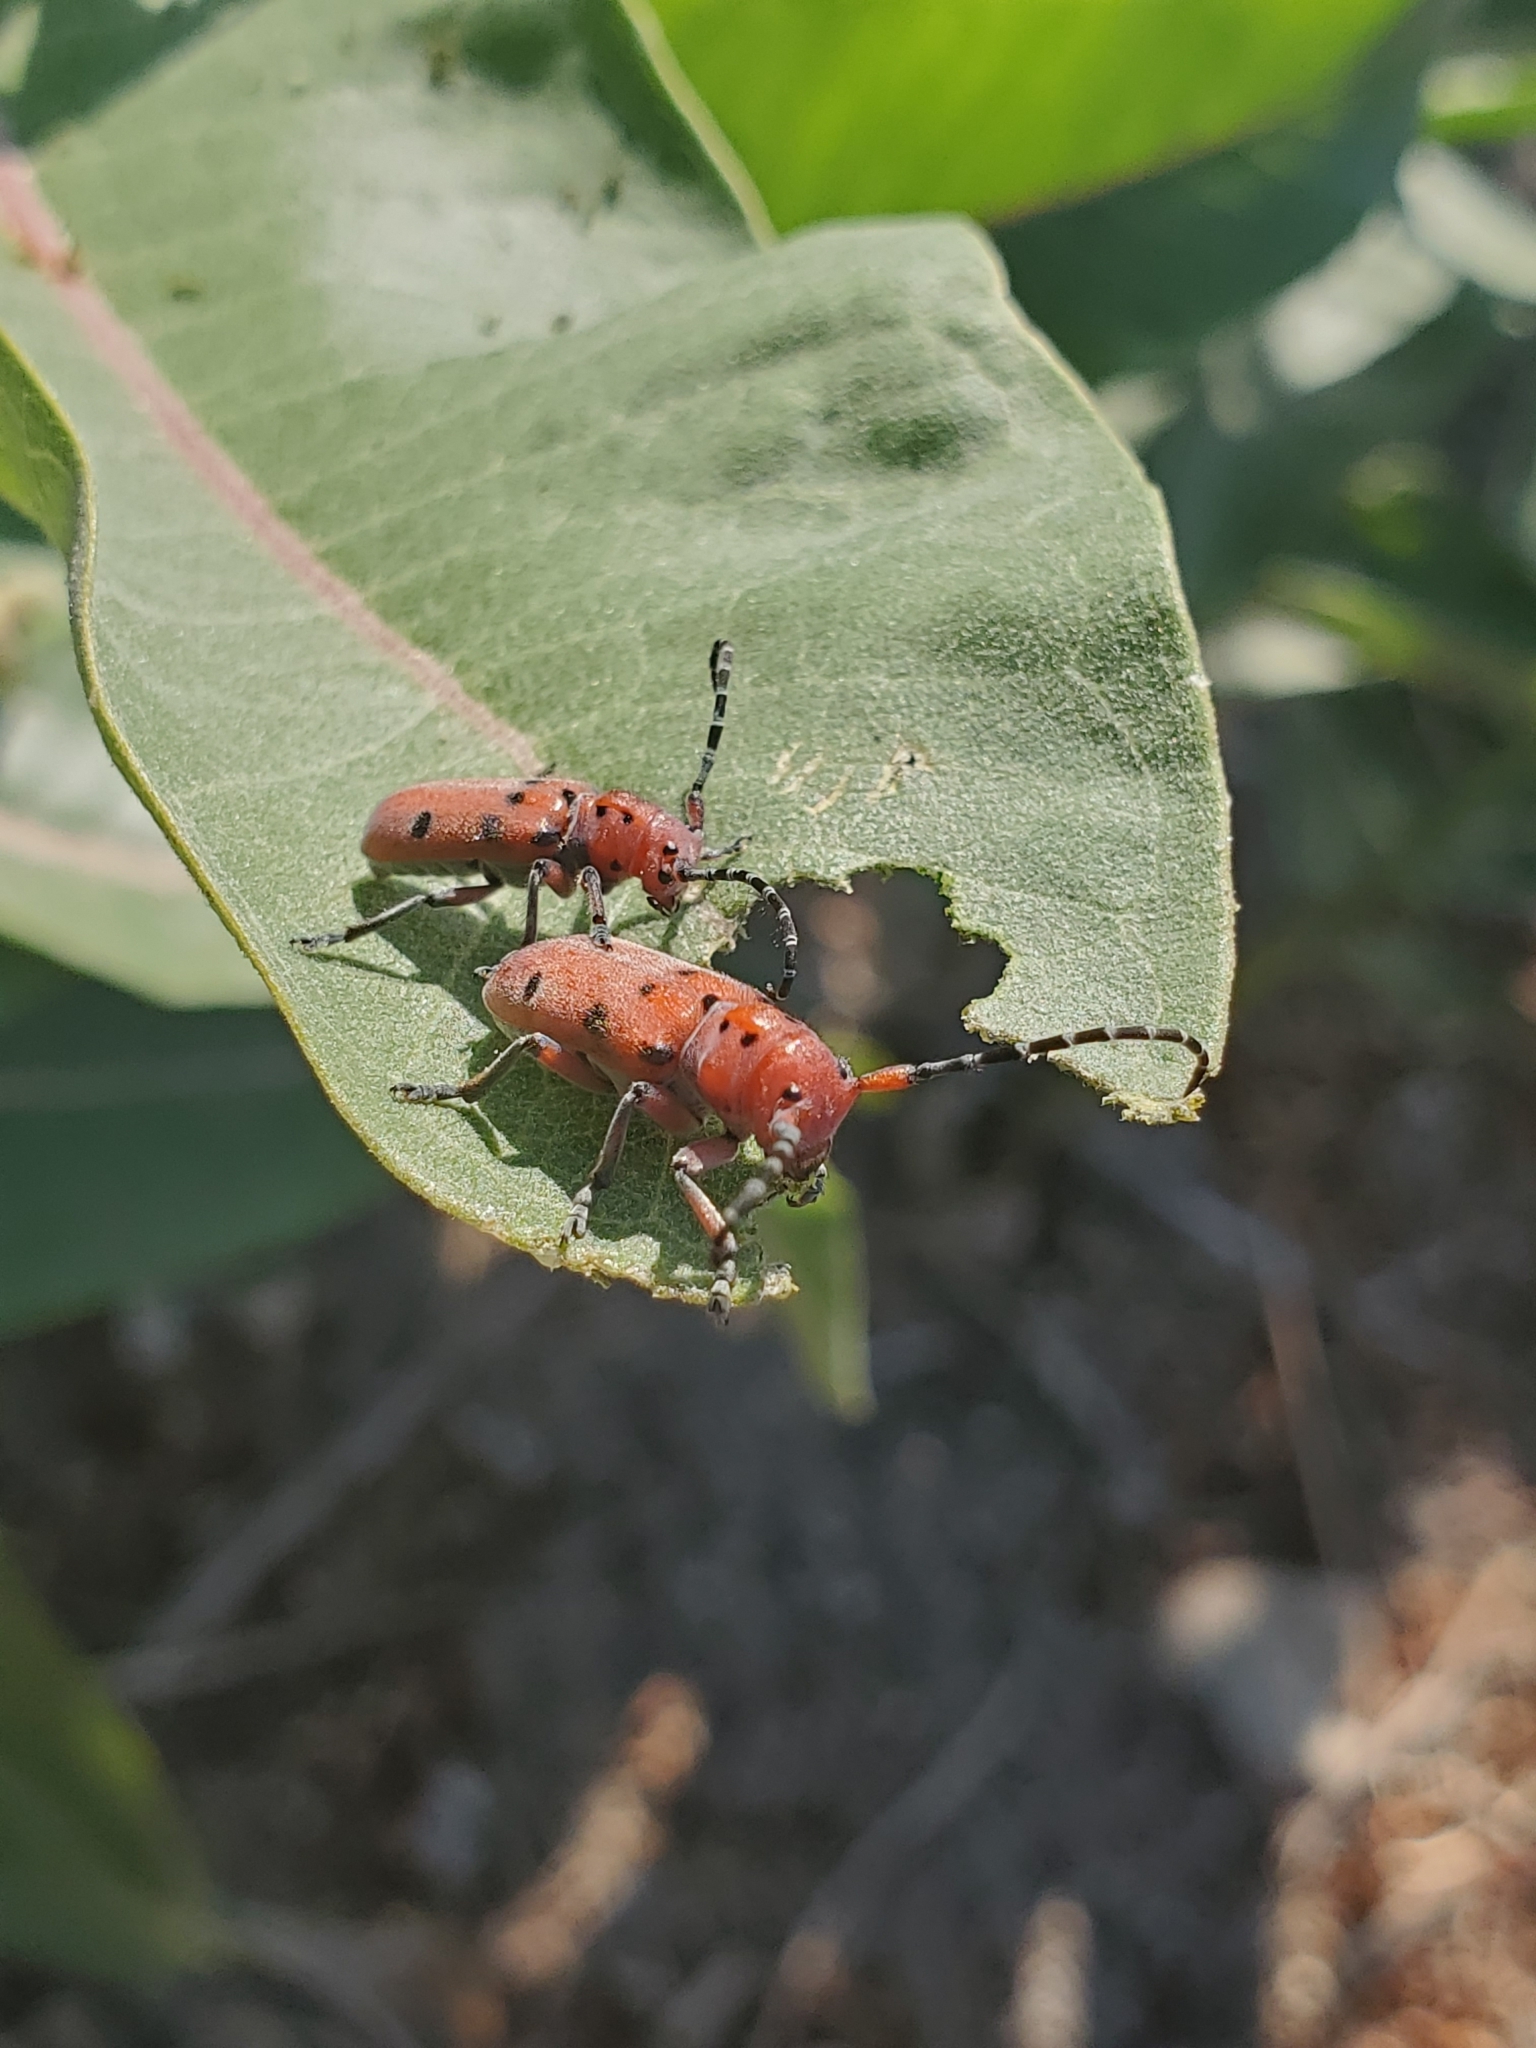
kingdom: Animalia
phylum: Arthropoda
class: Insecta
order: Coleoptera
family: Cerambycidae
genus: Tetraopes
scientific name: Tetraopes femoratus
